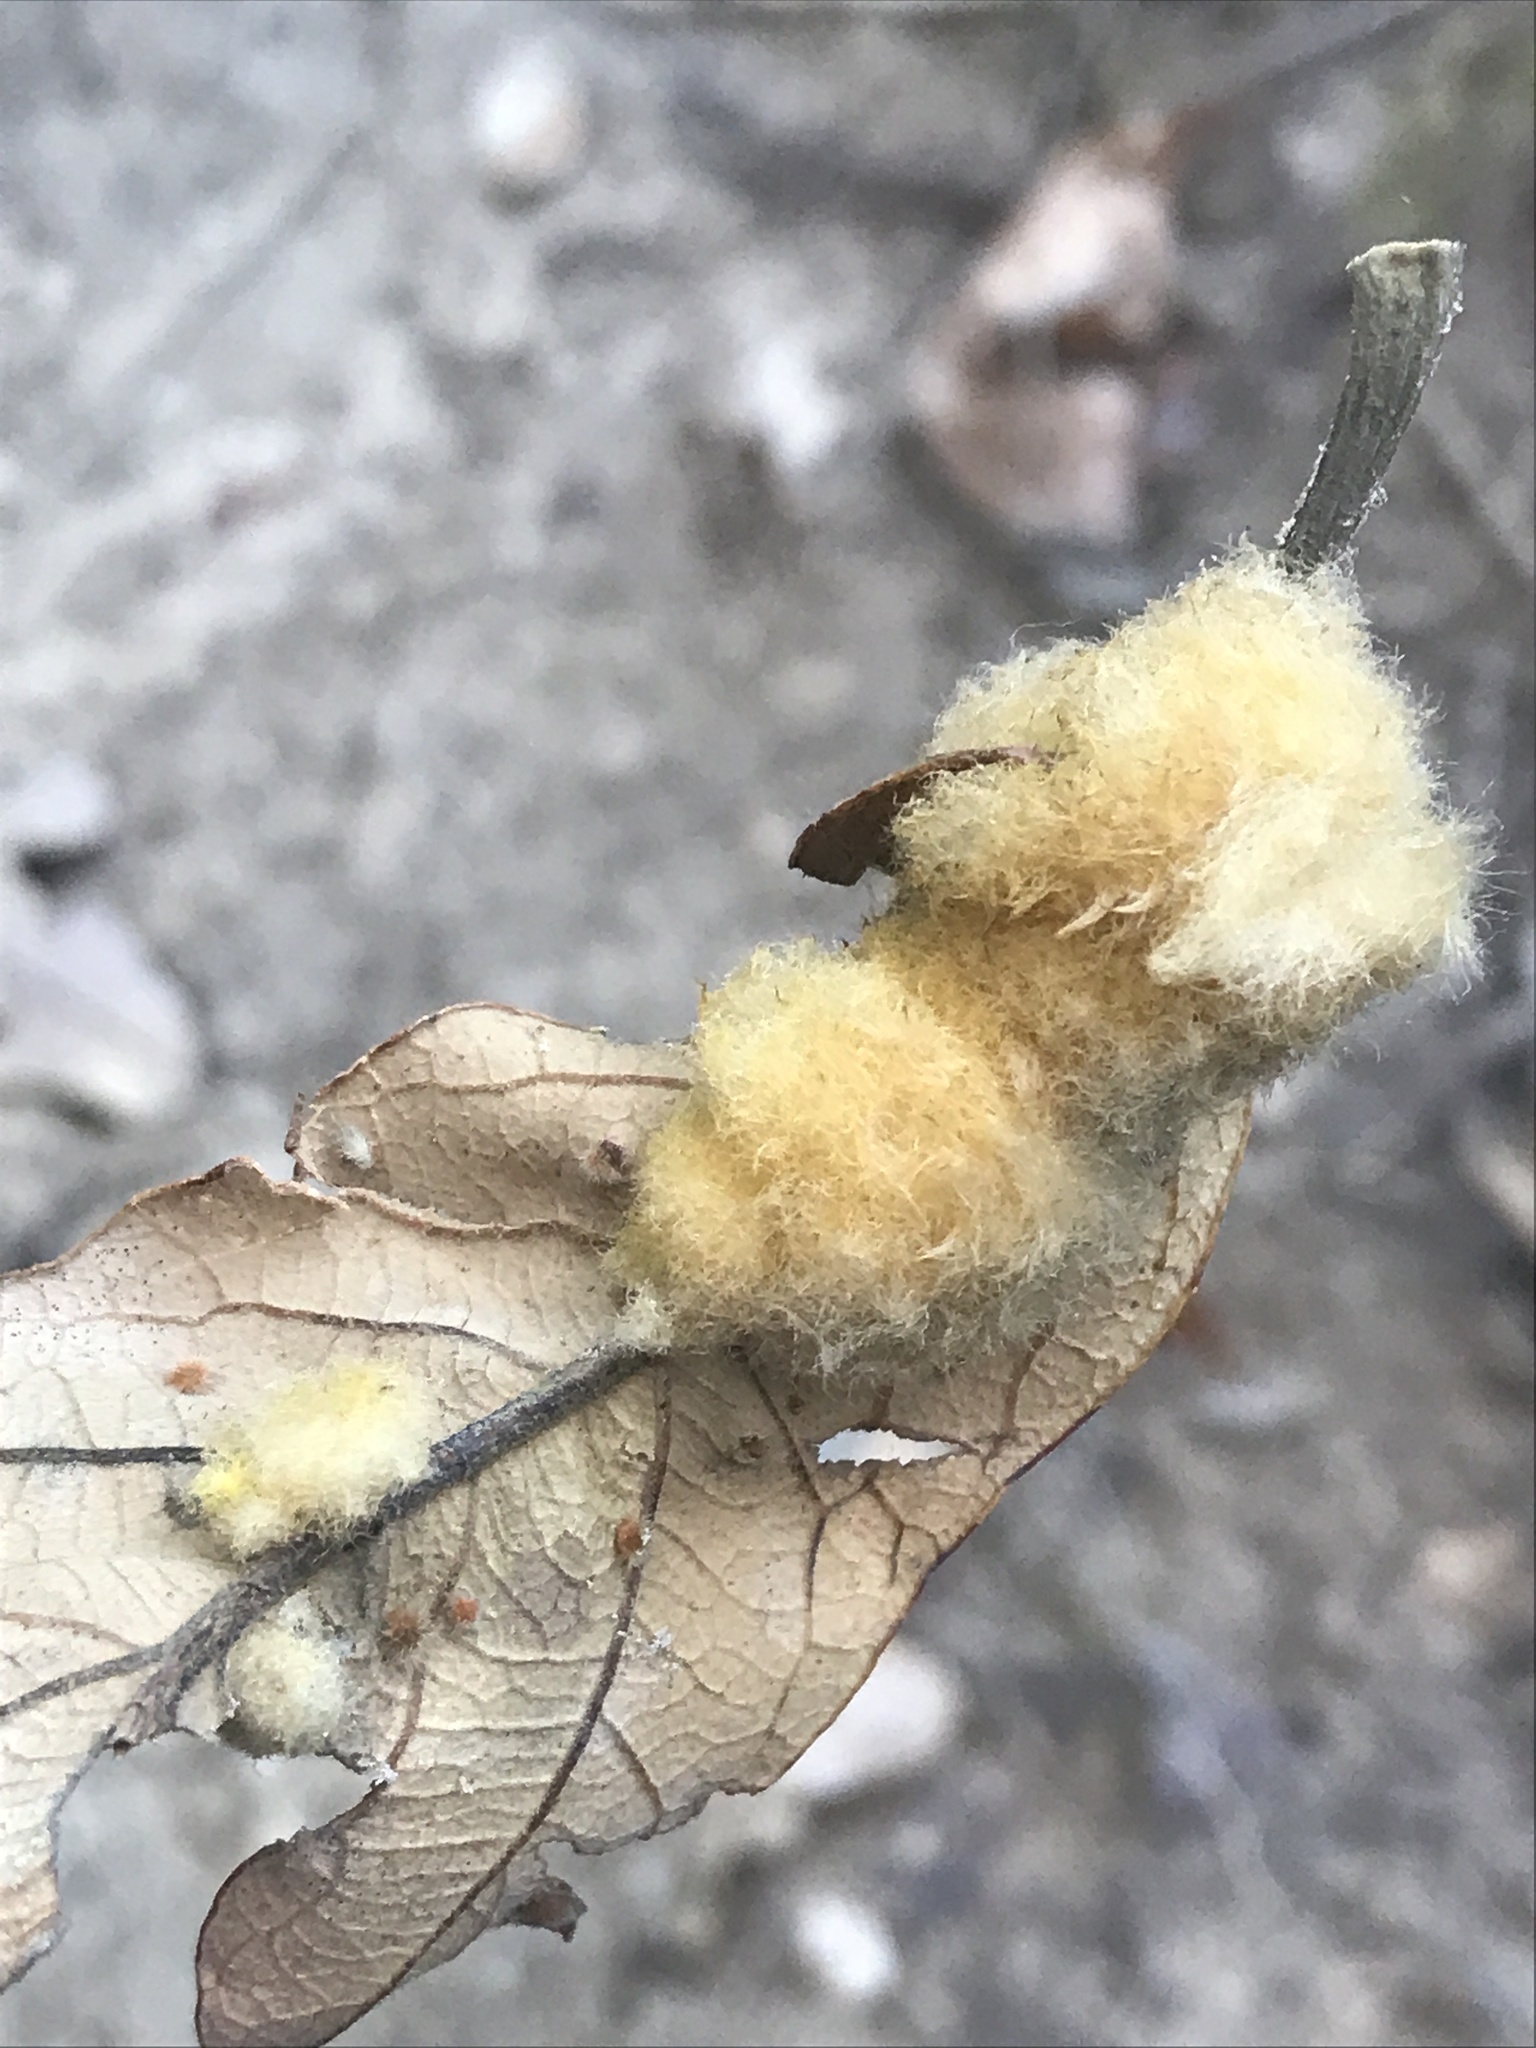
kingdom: Animalia
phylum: Arthropoda
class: Insecta
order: Hymenoptera
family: Cynipidae
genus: Andricus
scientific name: Andricus Druon pattoni
